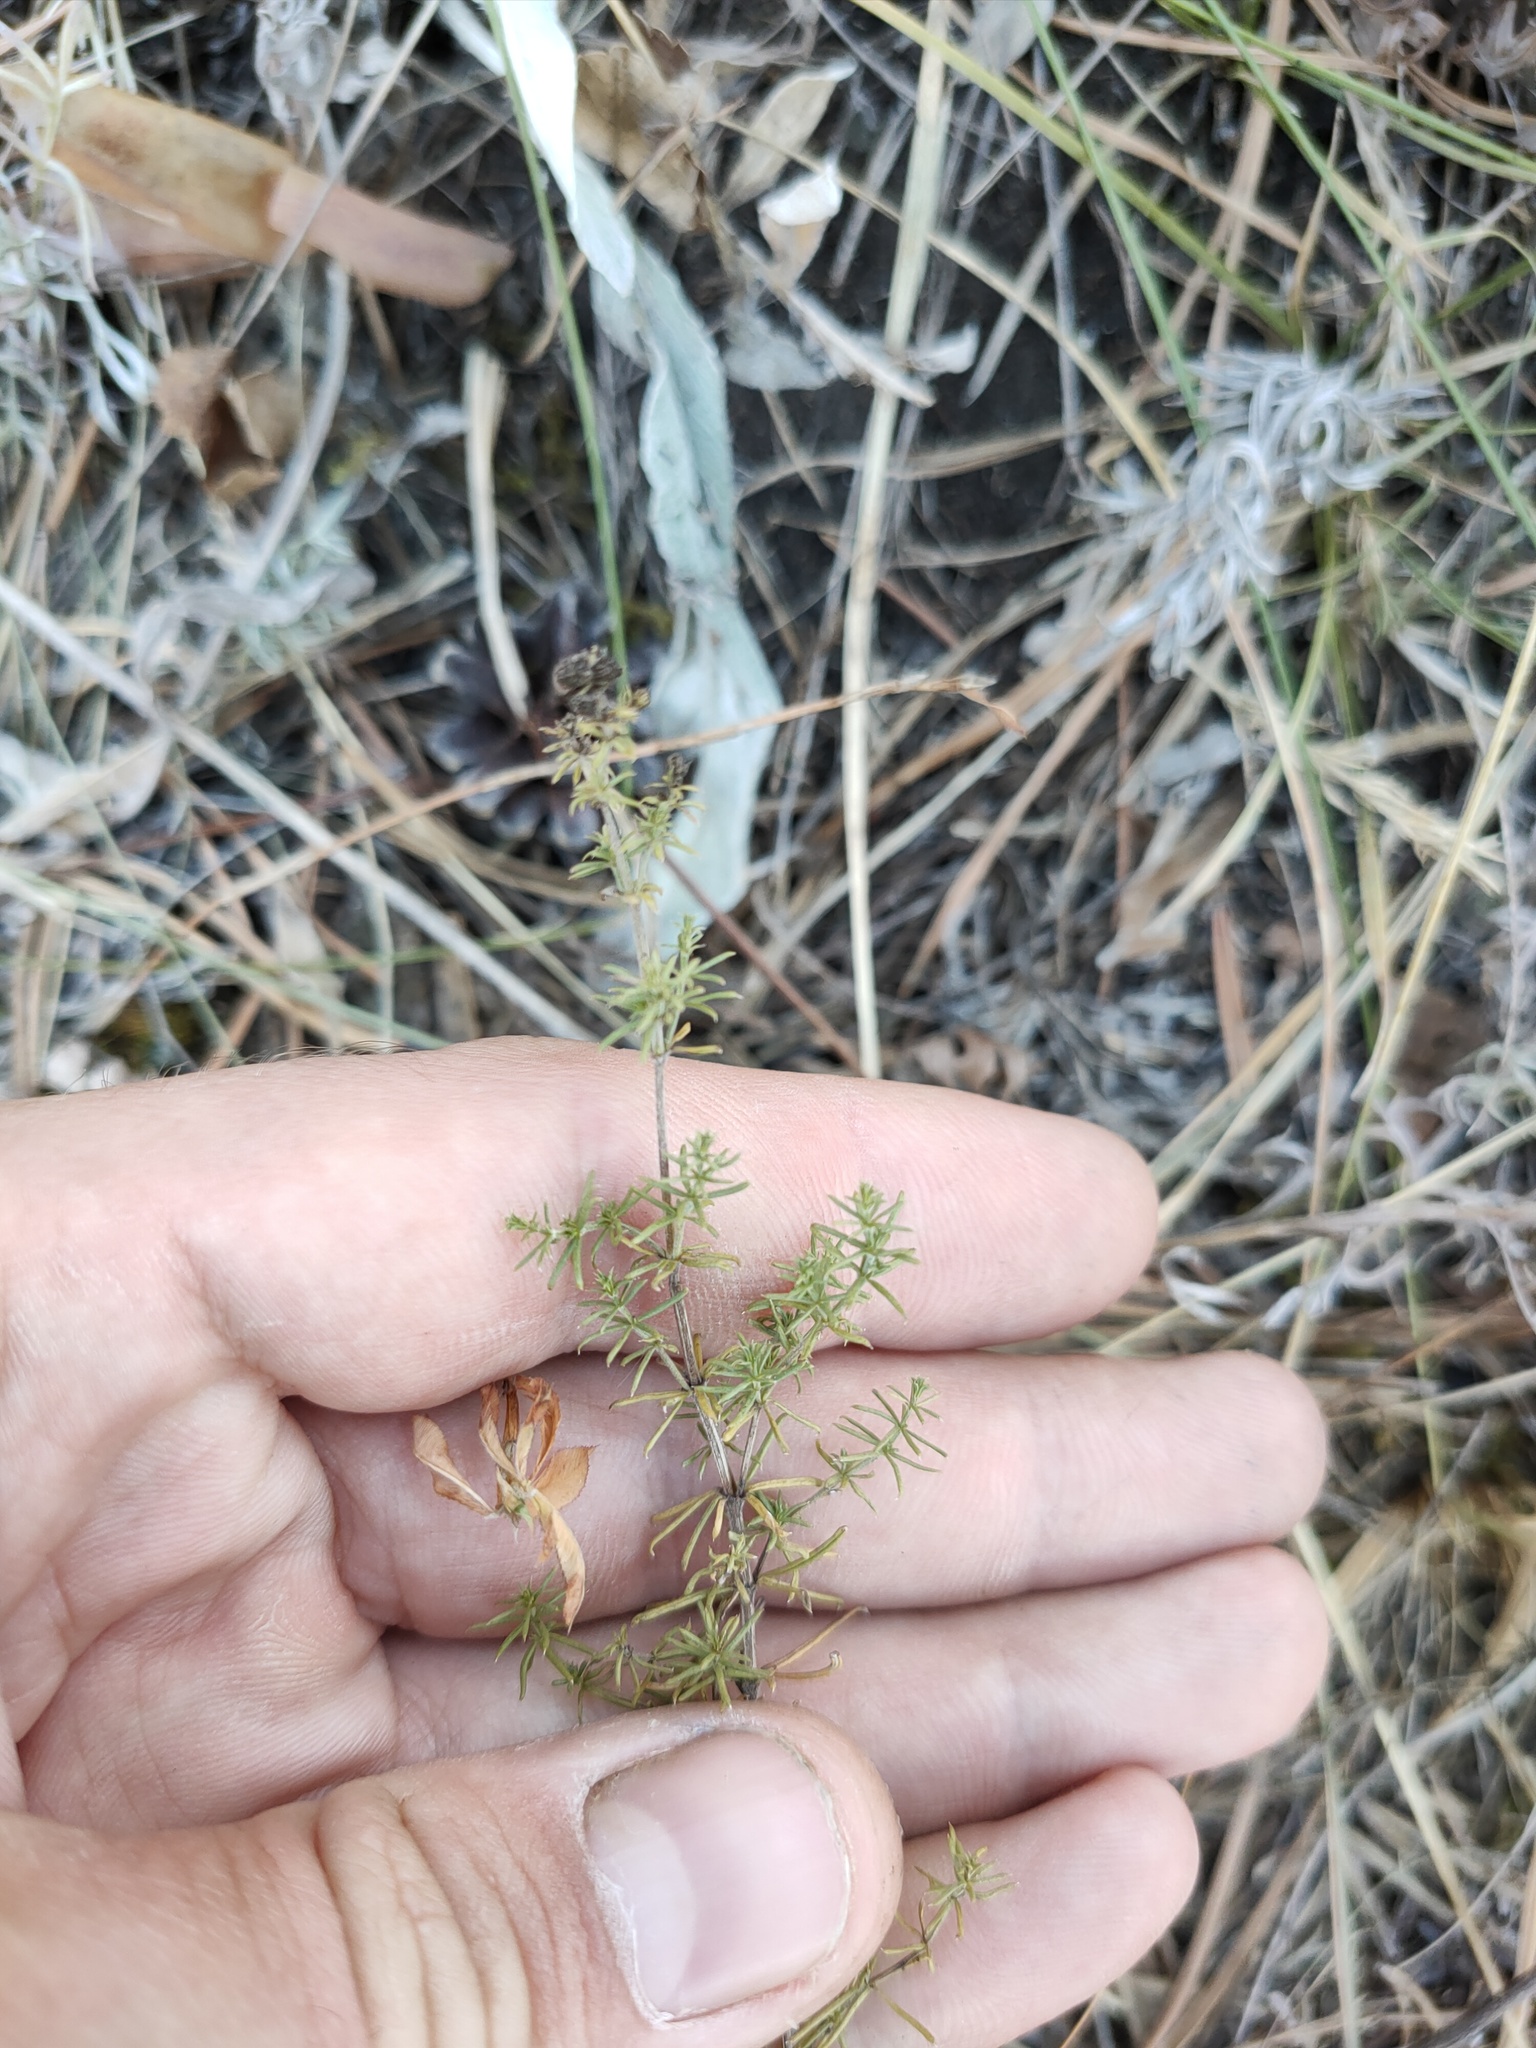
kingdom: Plantae
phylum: Tracheophyta
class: Magnoliopsida
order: Gentianales
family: Rubiaceae
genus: Galium
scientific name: Galium verum
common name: Lady's bedstraw
